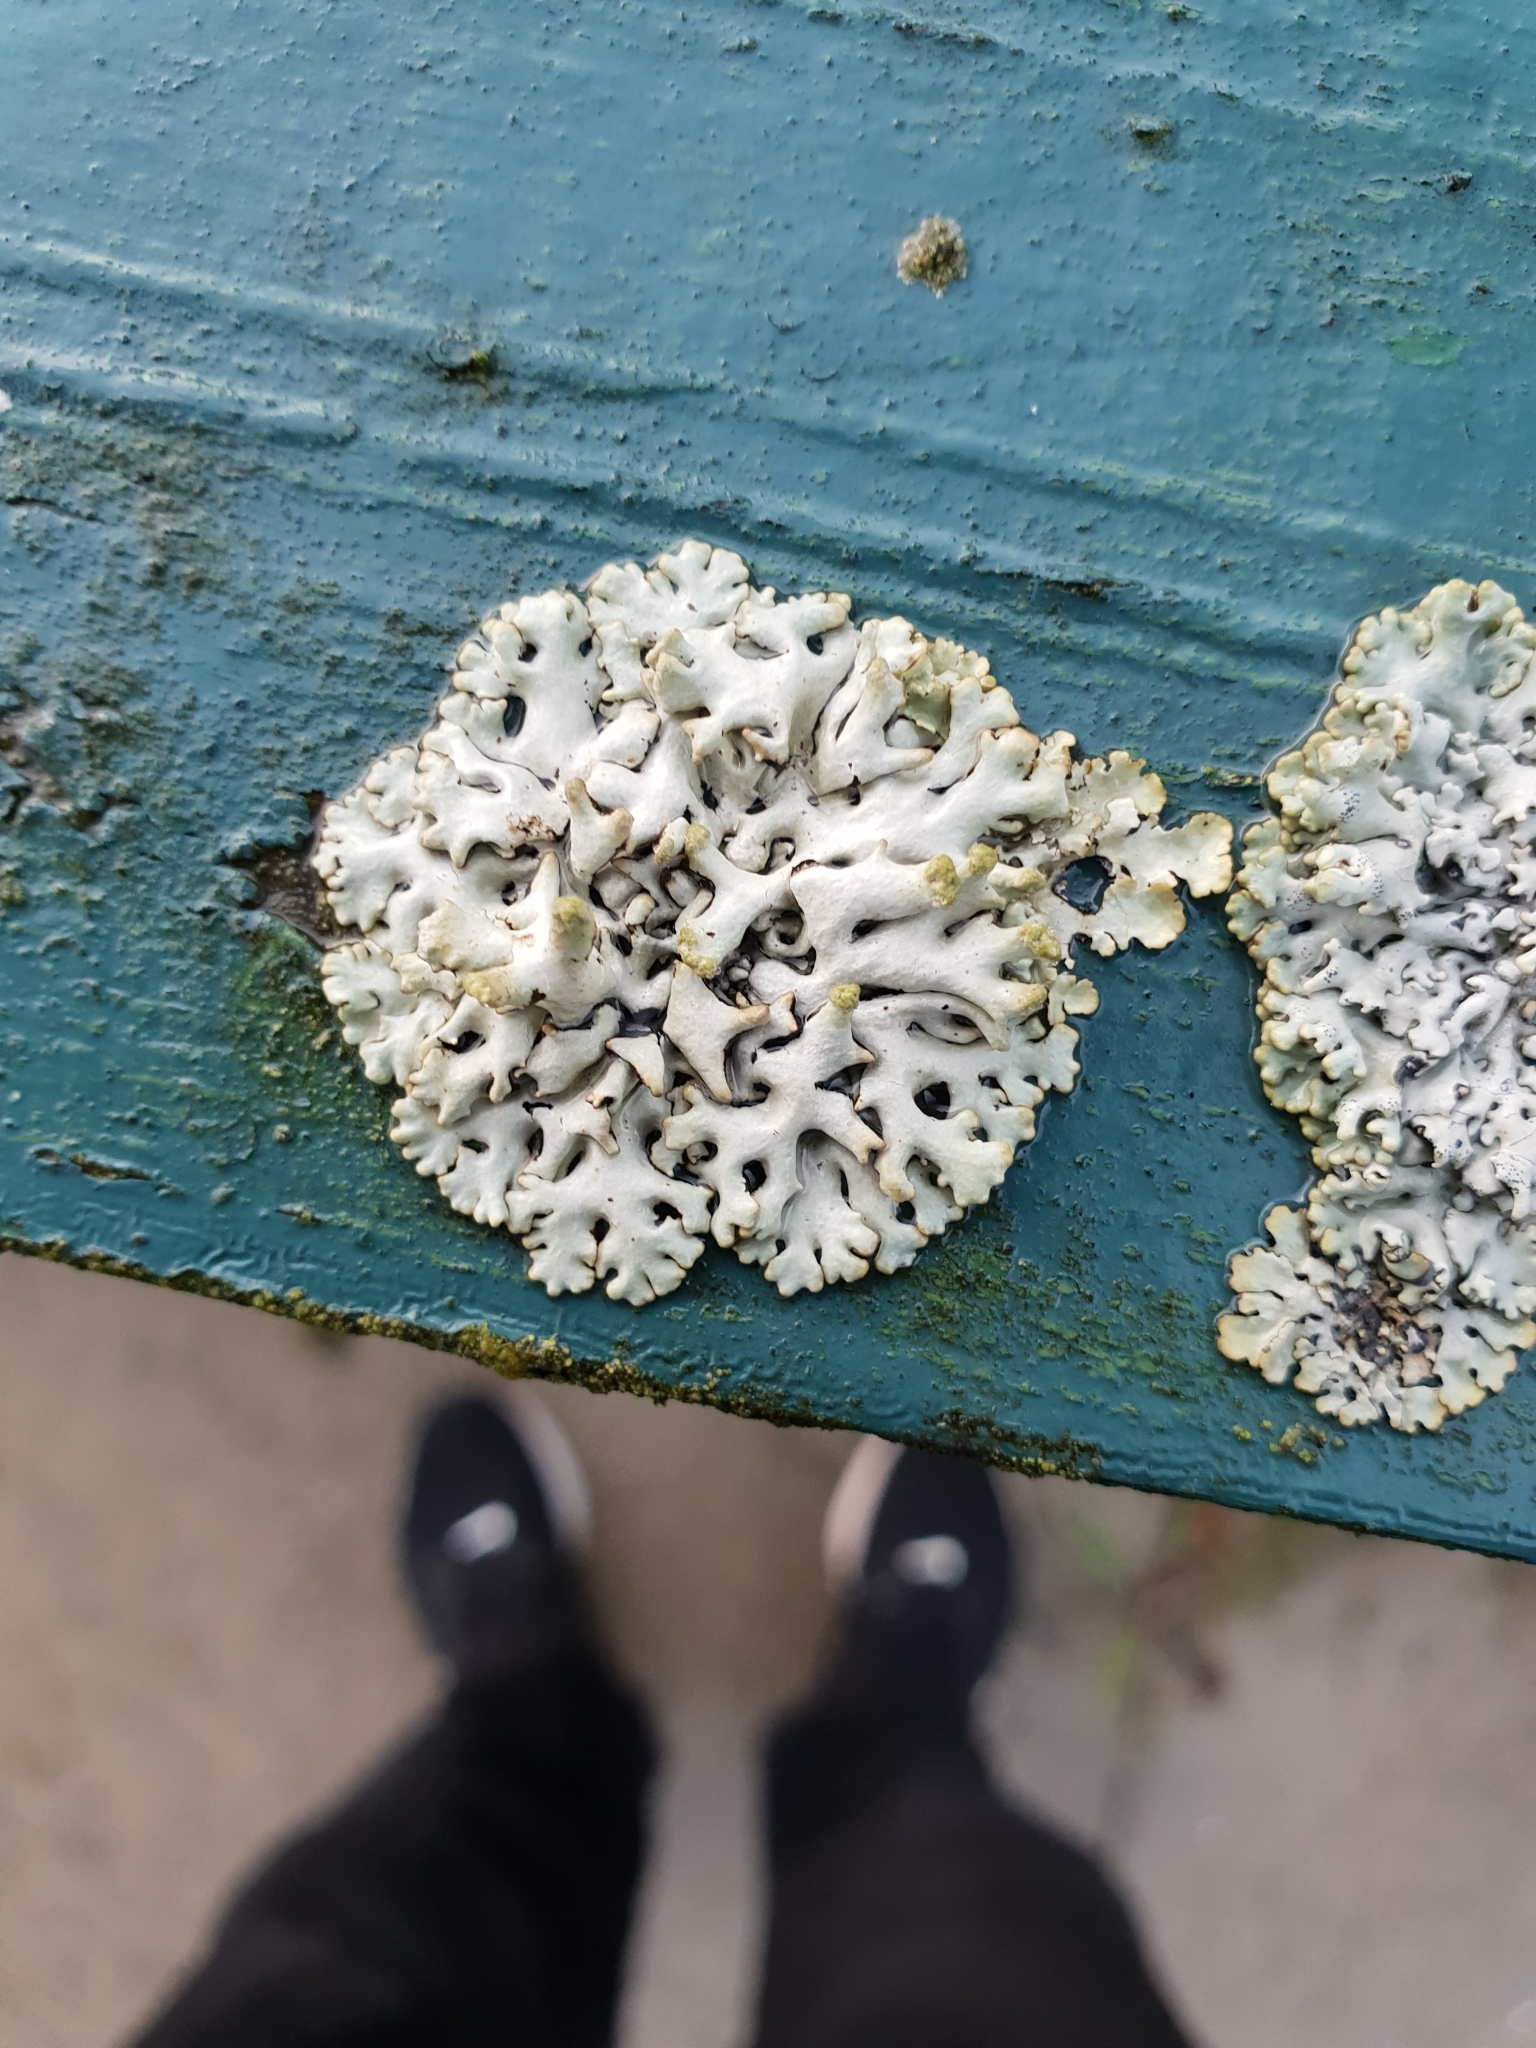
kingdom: Fungi
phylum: Ascomycota
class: Lecanoromycetes
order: Lecanorales
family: Parmeliaceae
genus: Hypogymnia
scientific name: Hypogymnia tubulosa
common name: Powder-headed tube lichen
